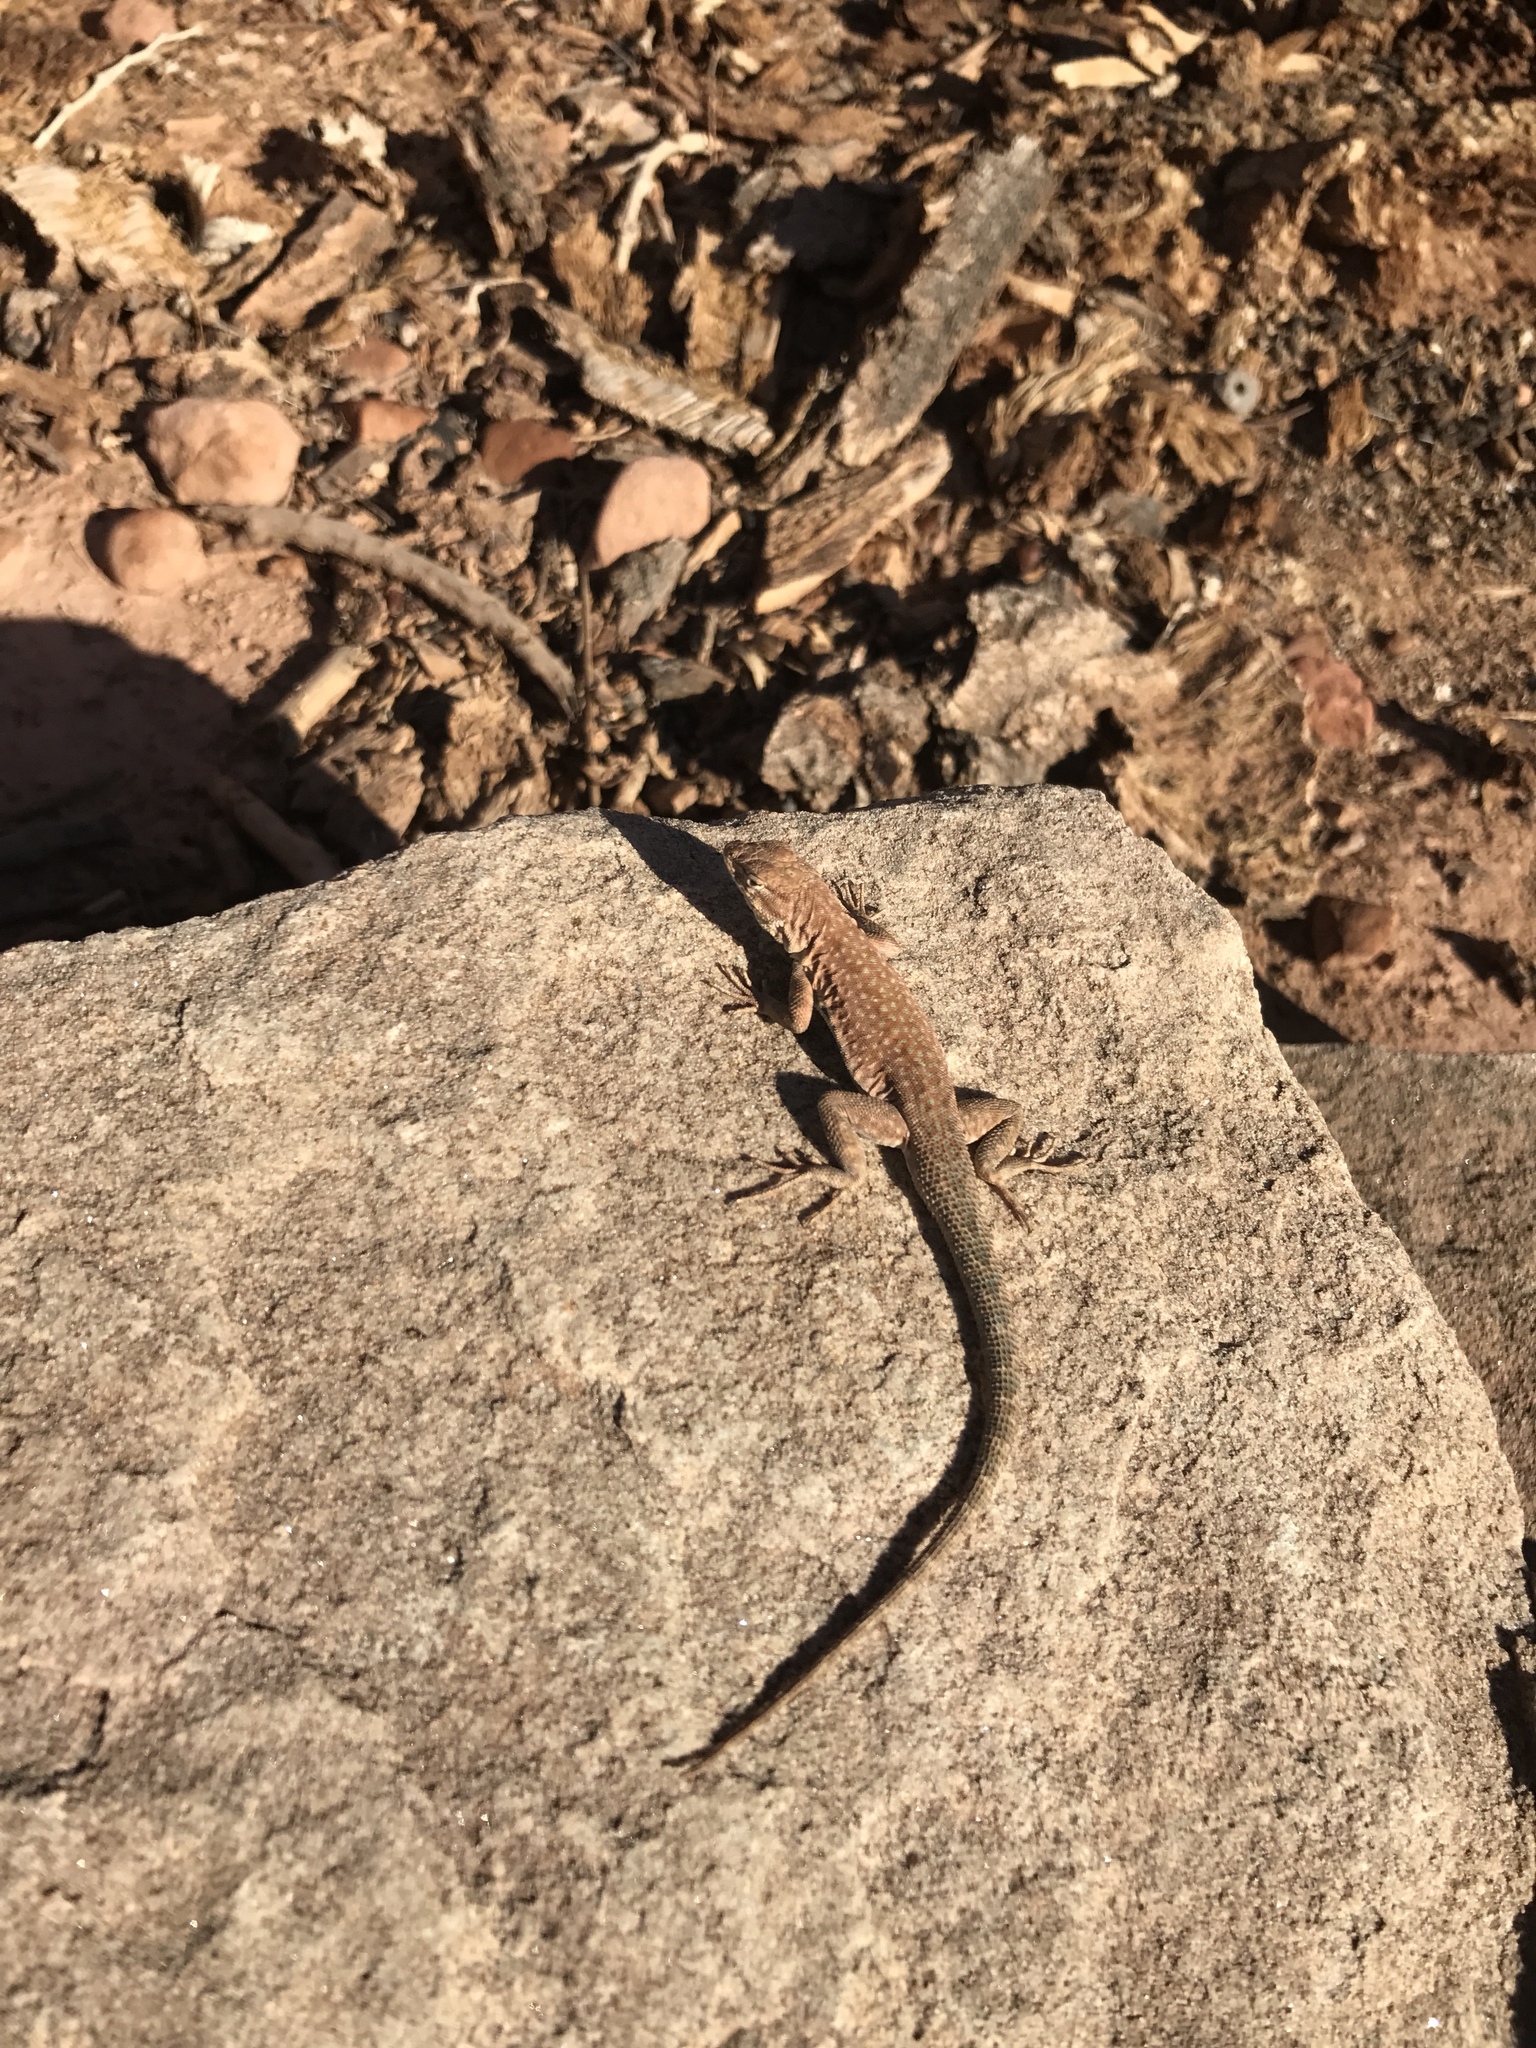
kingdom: Animalia
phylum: Chordata
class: Squamata
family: Phrynosomatidae
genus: Uta
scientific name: Uta stansburiana
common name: Side-blotched lizard
